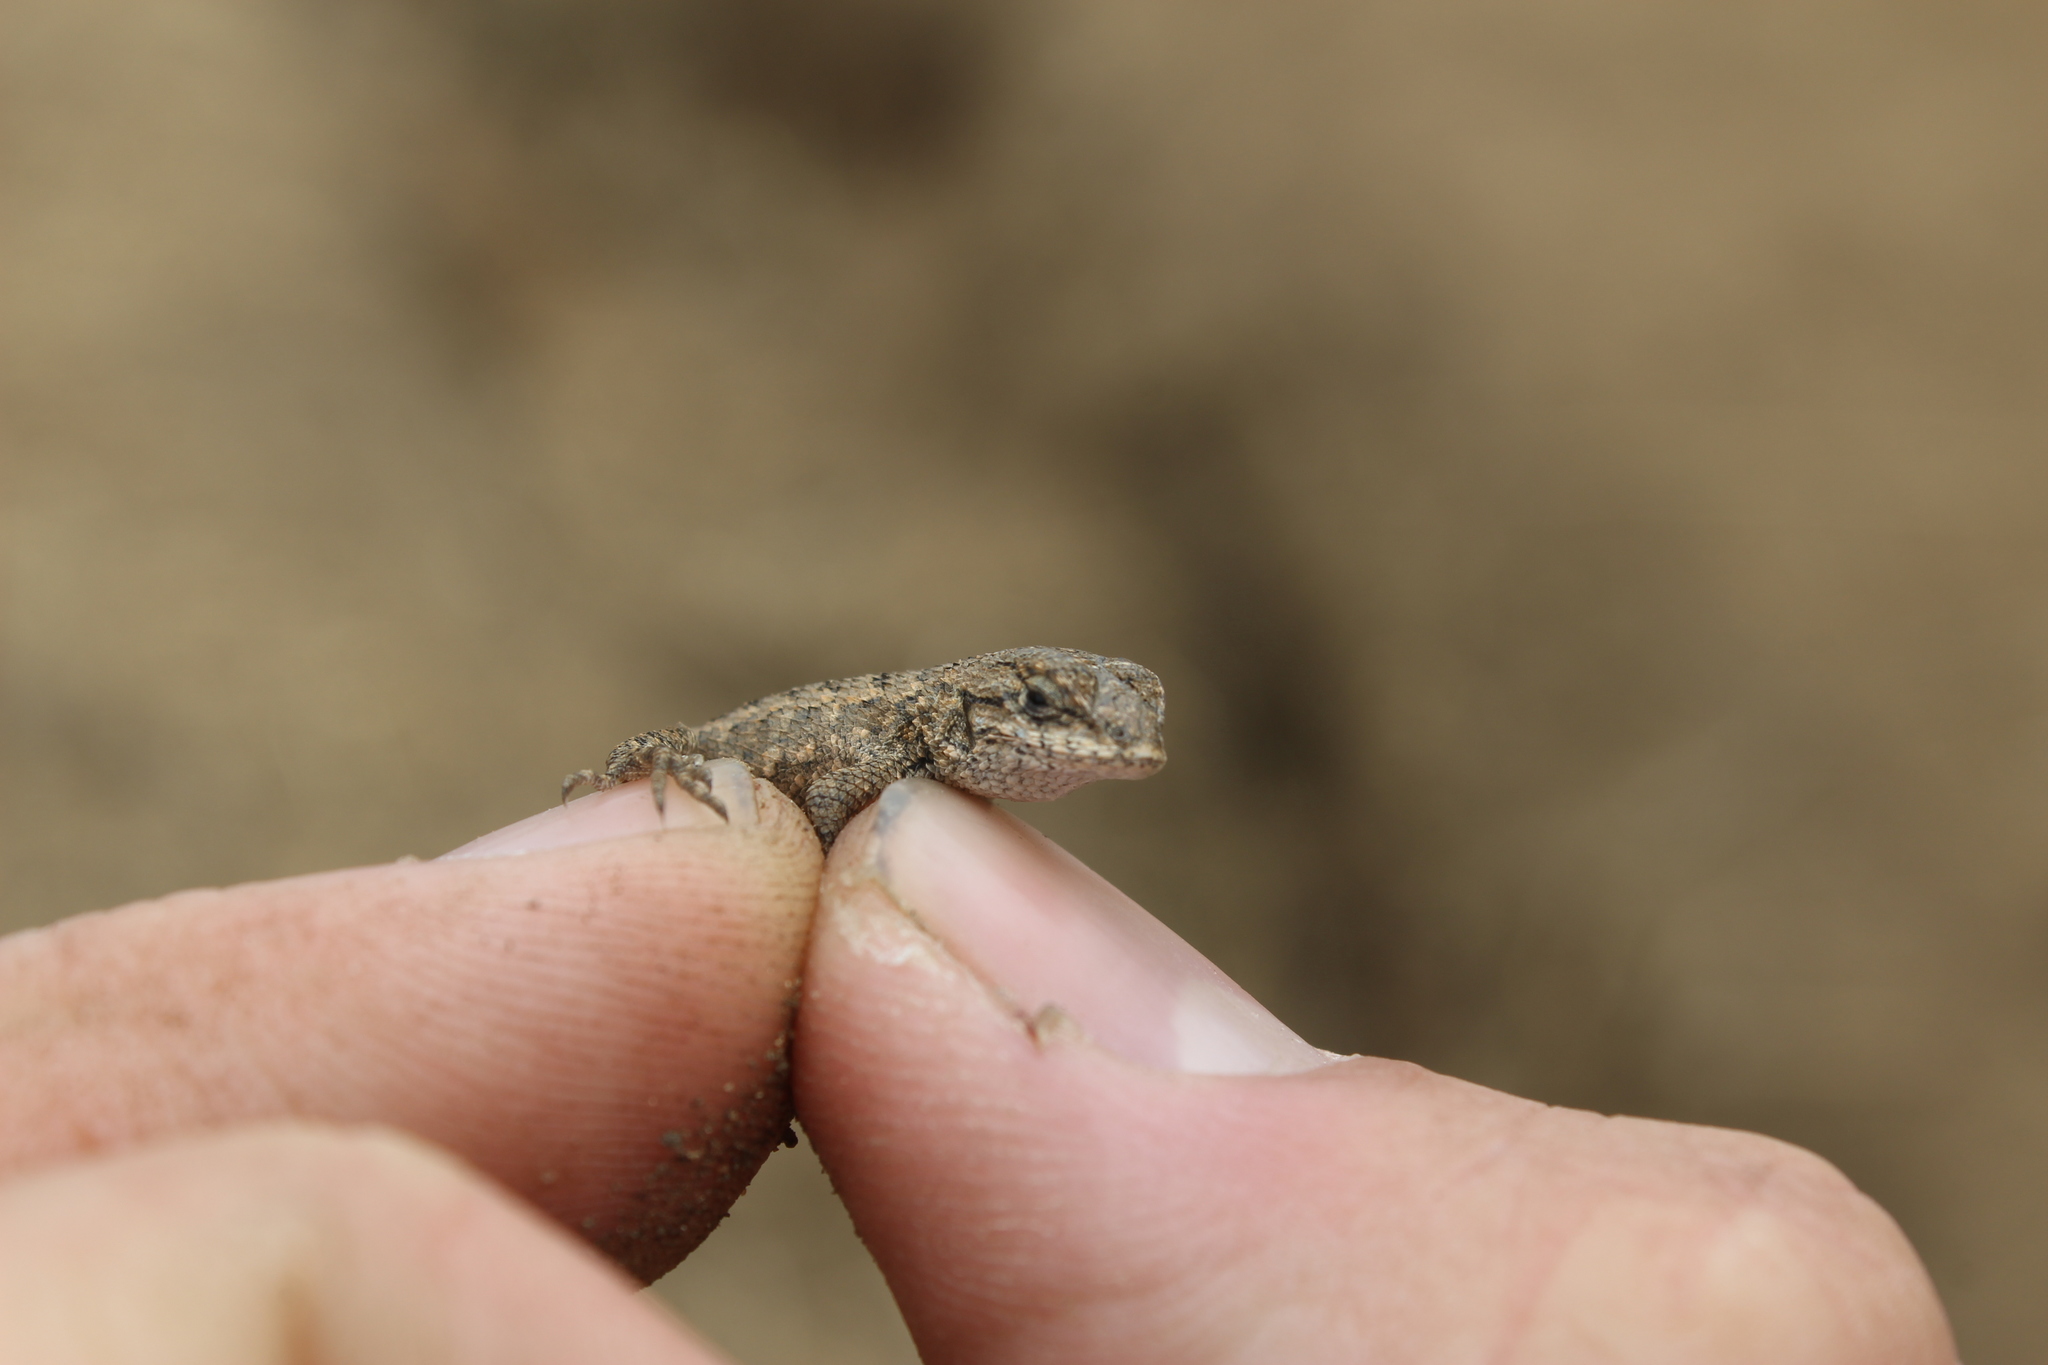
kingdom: Animalia
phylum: Chordata
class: Squamata
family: Phrynosomatidae
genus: Sceloporus
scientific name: Sceloporus occidentalis
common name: Western fence lizard
